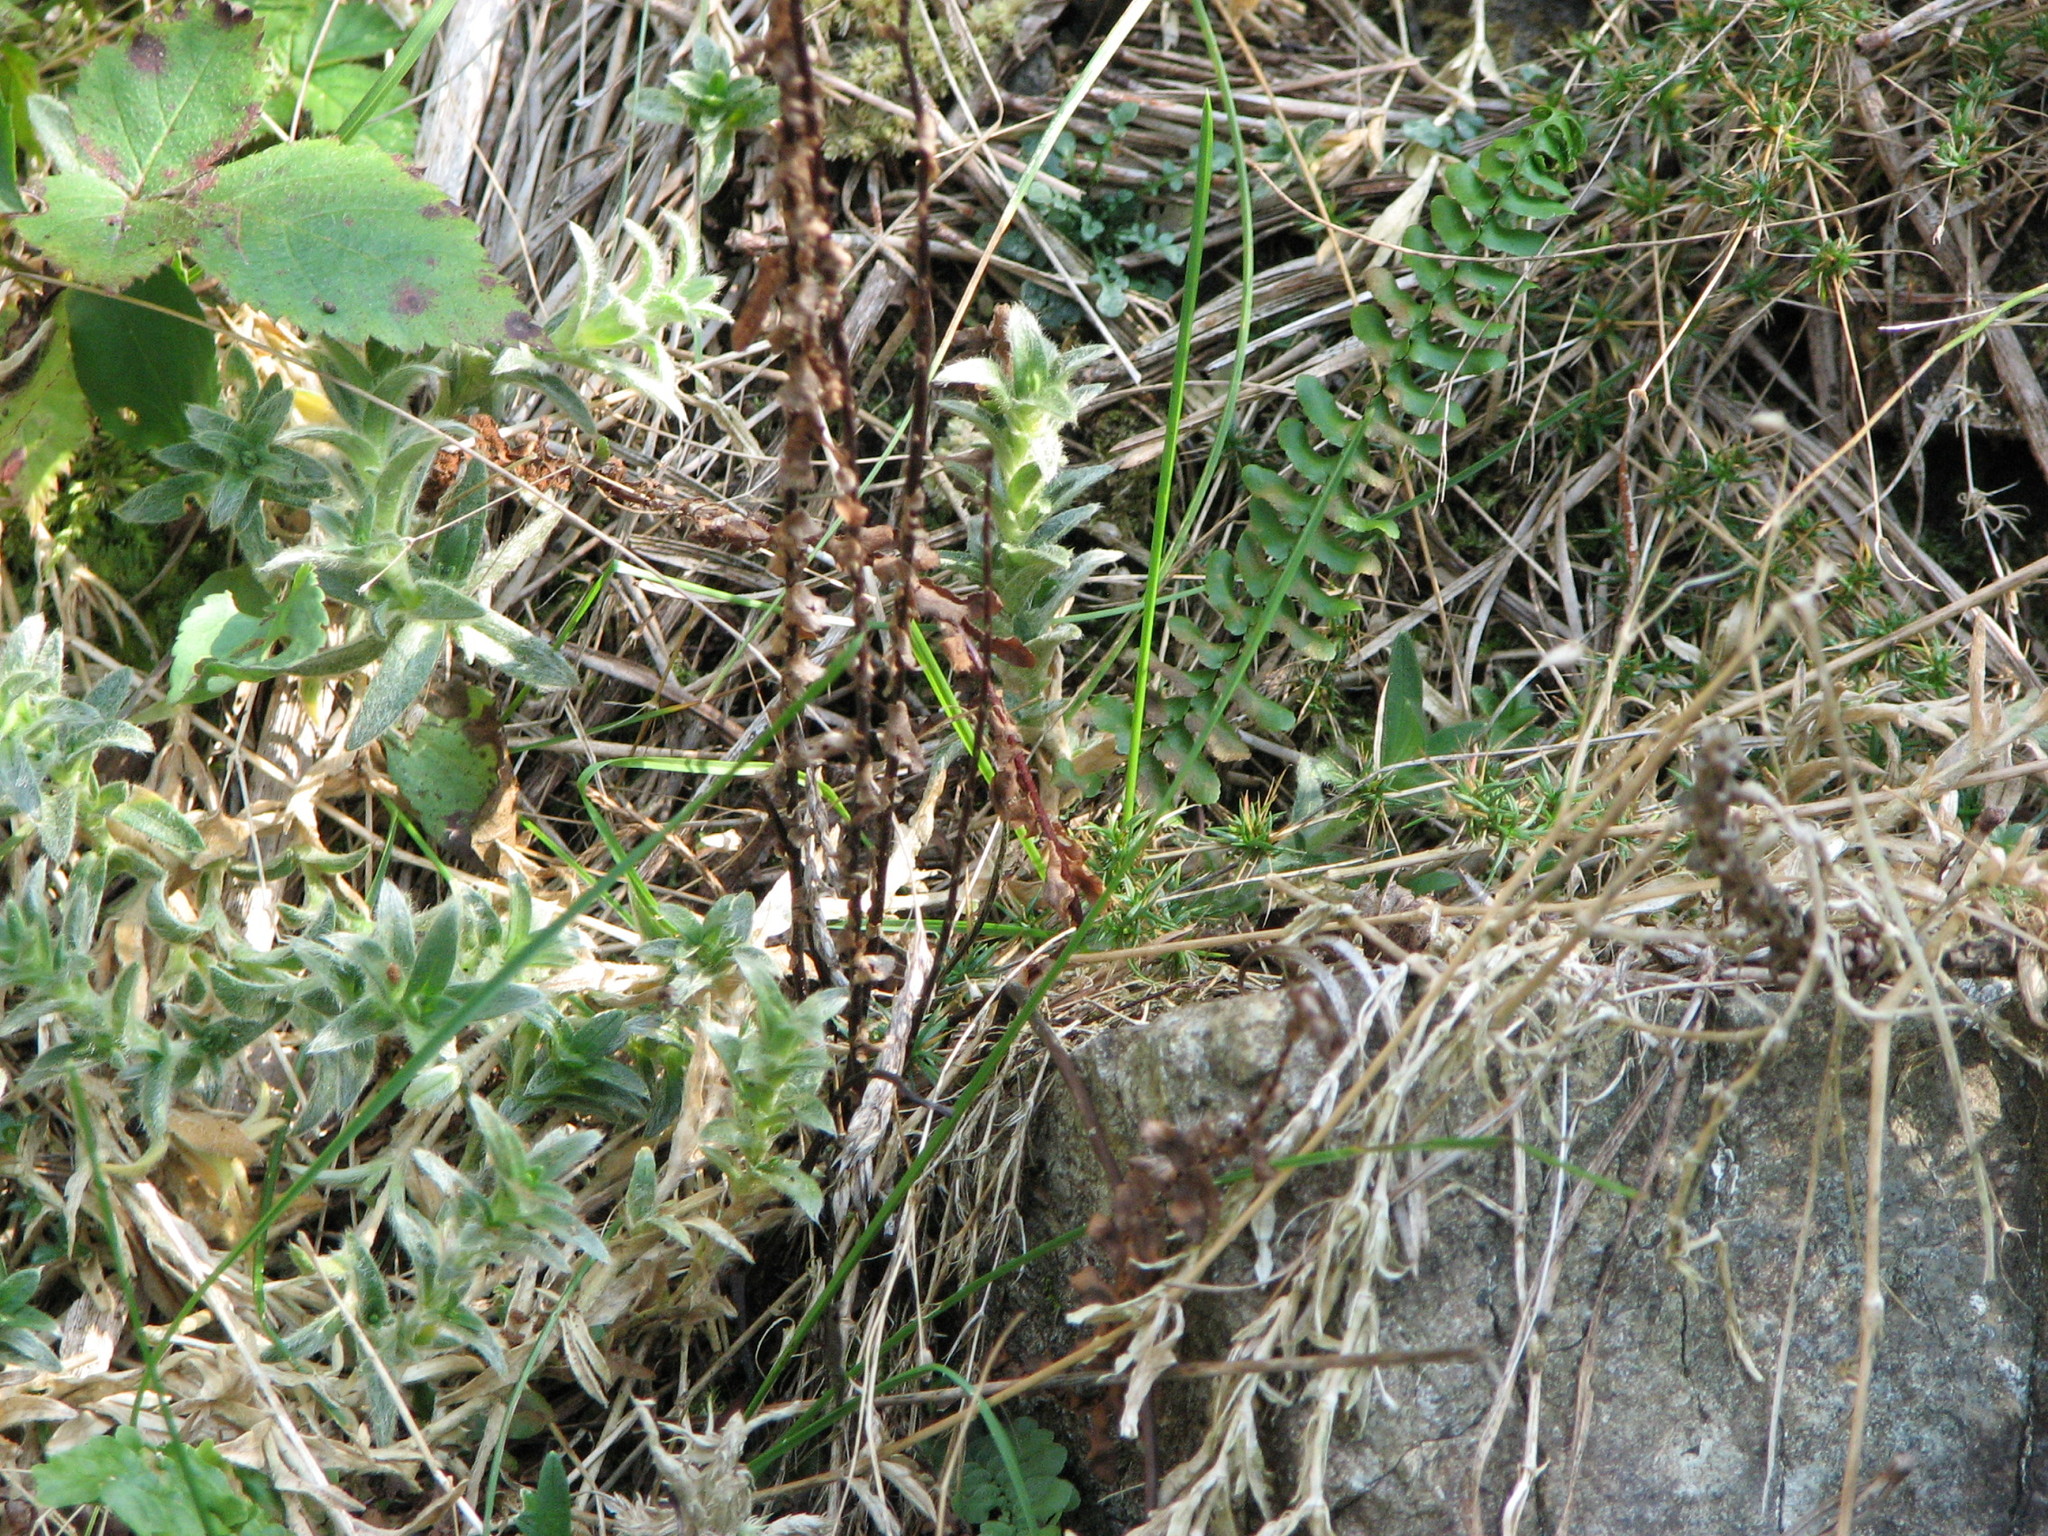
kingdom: Plantae
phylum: Tracheophyta
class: Polypodiopsida
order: Polypodiales
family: Aspleniaceae
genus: Asplenium
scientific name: Asplenium platyneuron
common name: Ebony spleenwort
